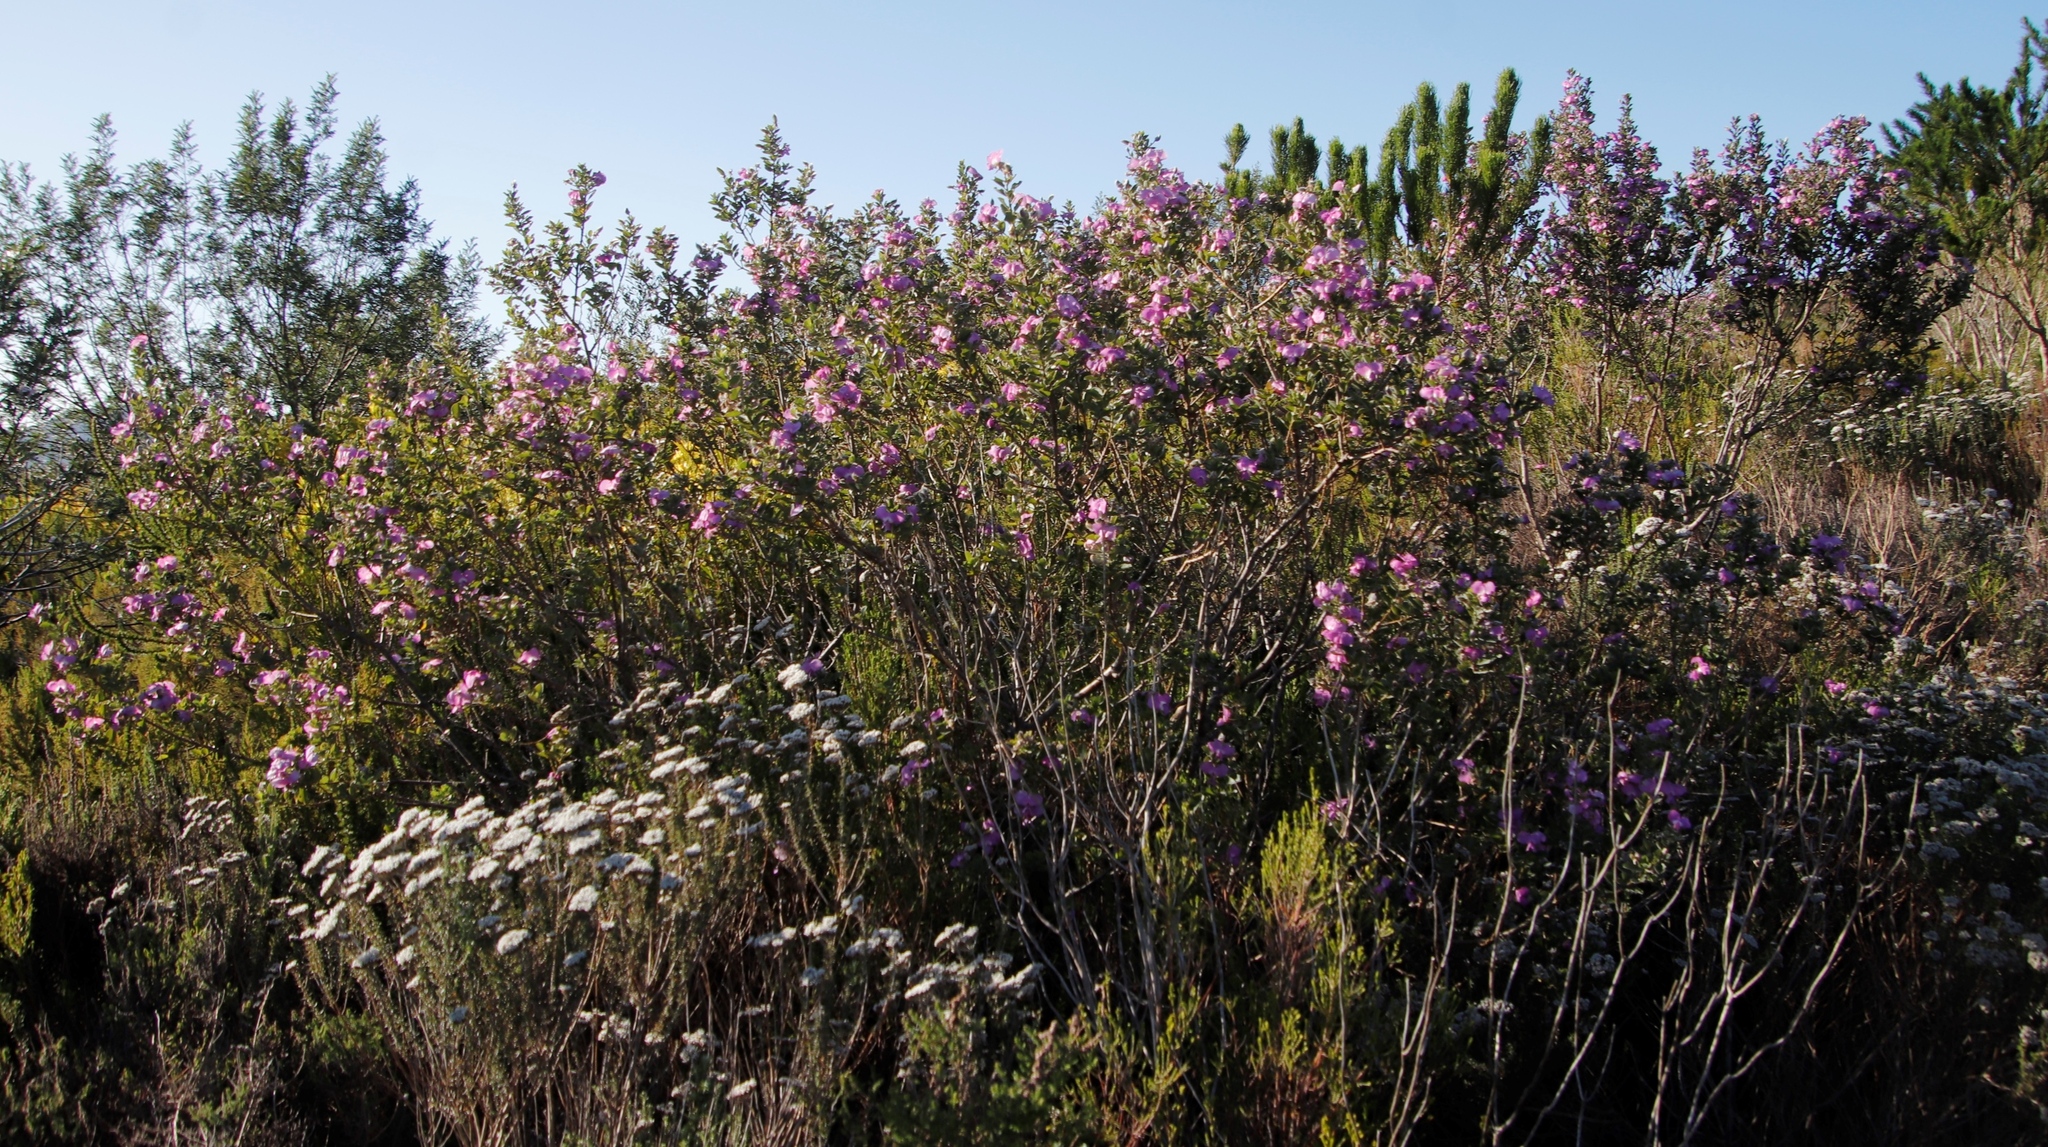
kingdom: Plantae
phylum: Tracheophyta
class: Magnoliopsida
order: Fabales
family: Fabaceae
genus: Podalyria
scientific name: Podalyria calyptrata
